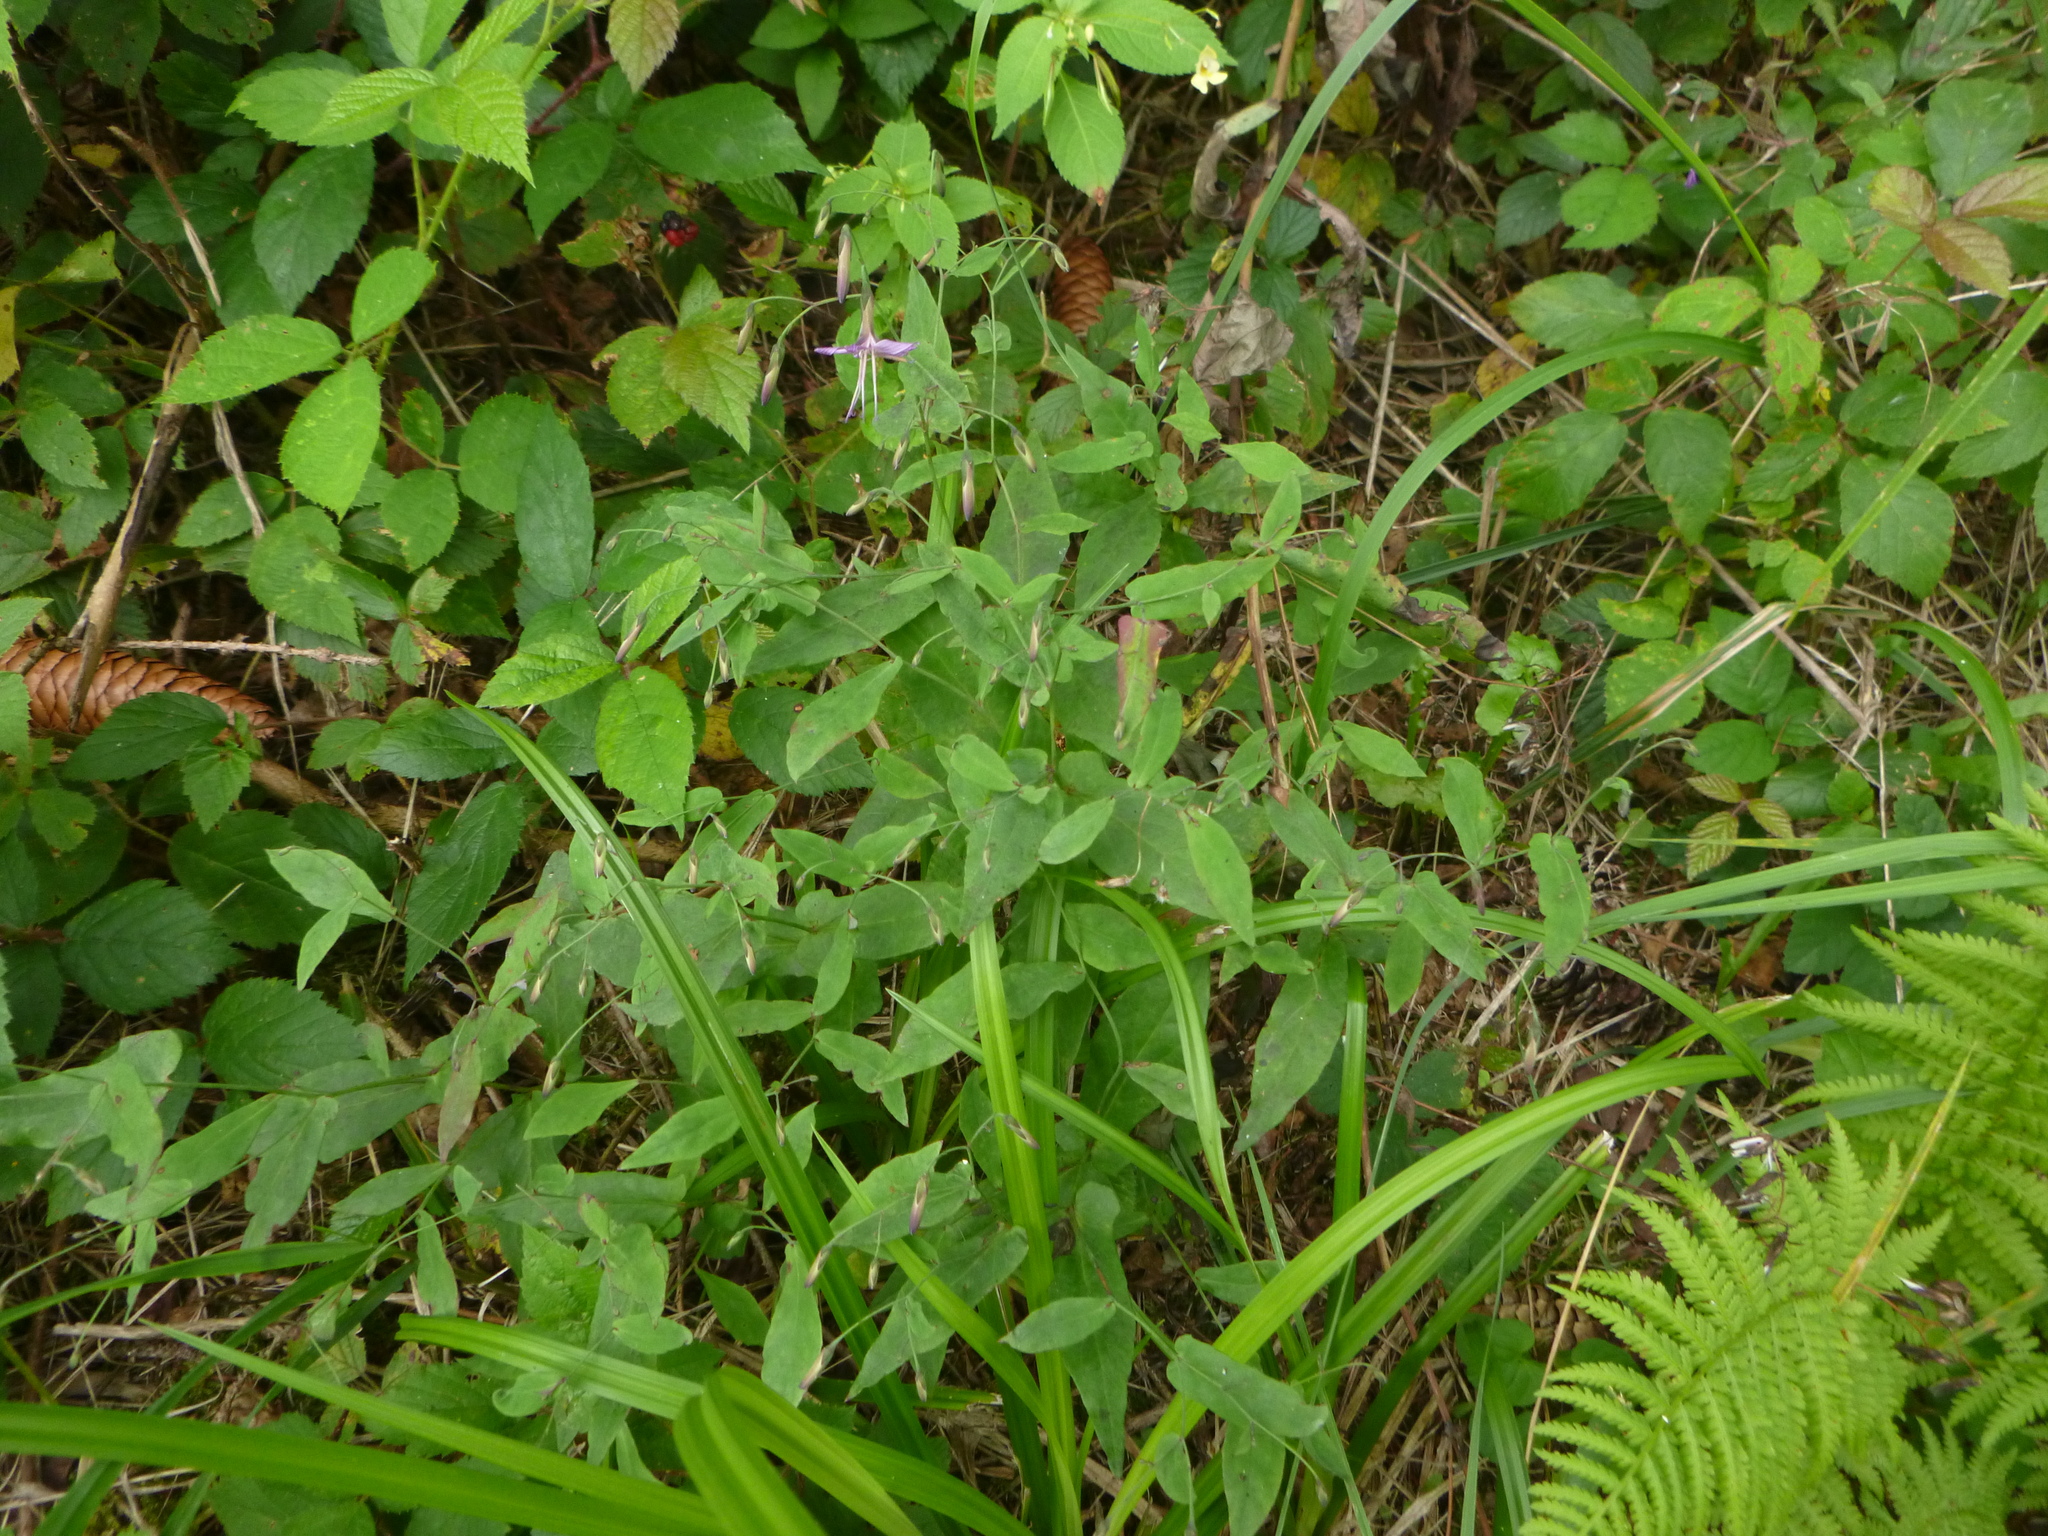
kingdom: Plantae
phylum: Tracheophyta
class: Magnoliopsida
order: Asterales
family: Asteraceae
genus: Prenanthes
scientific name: Prenanthes purpurea
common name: Purple lettuce
